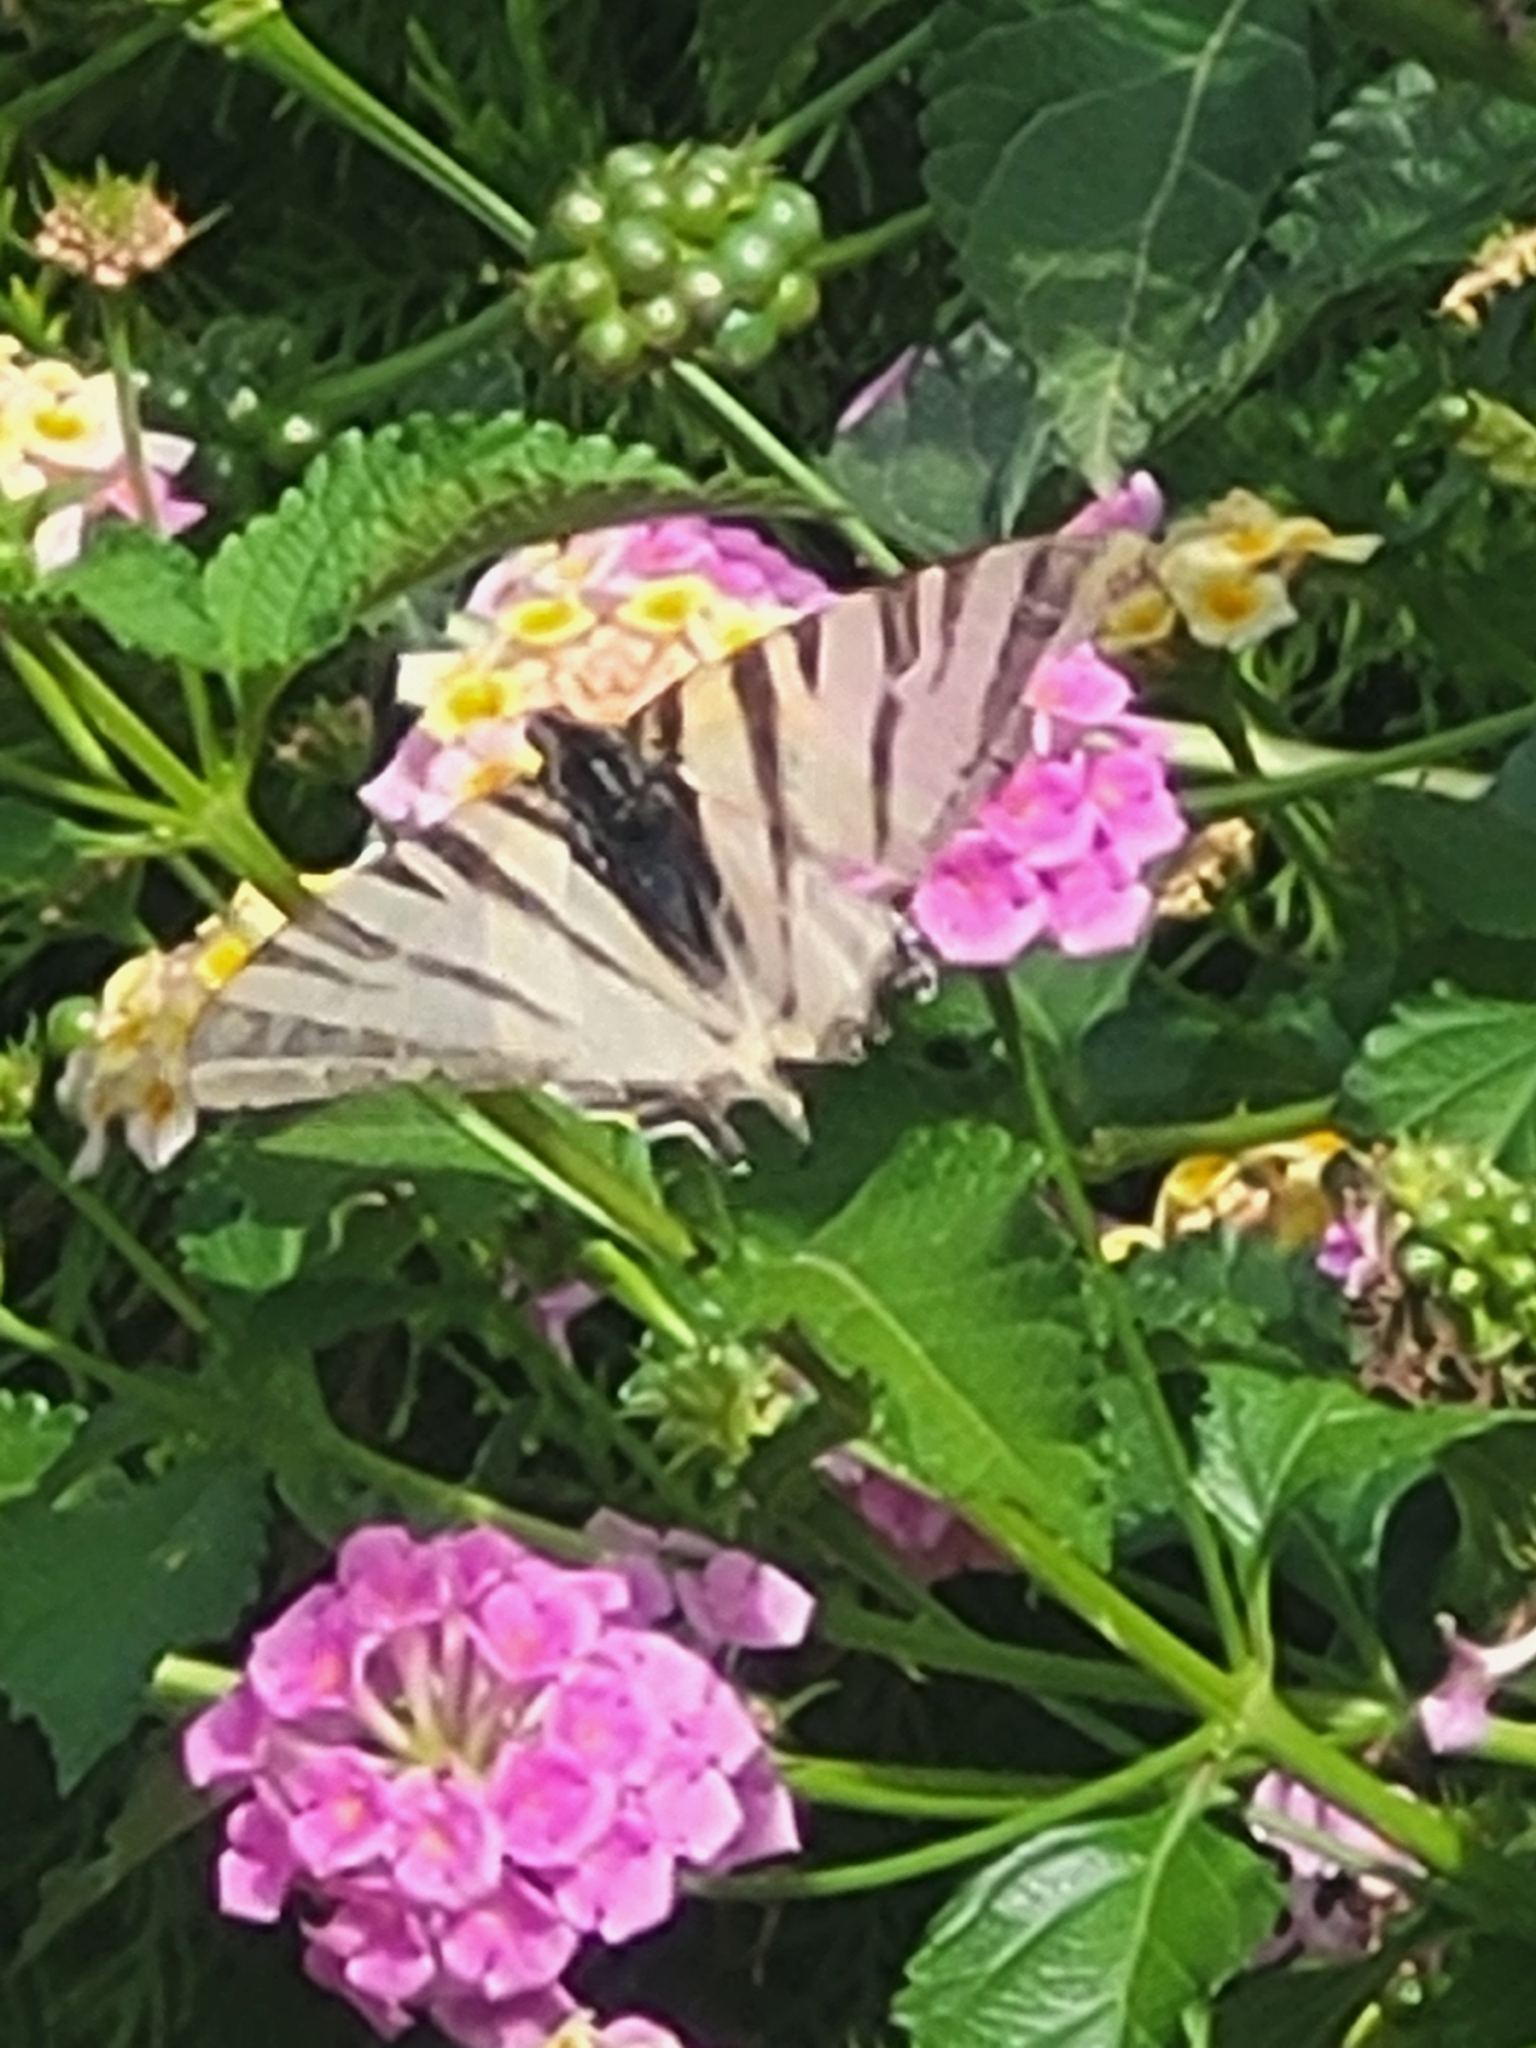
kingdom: Animalia
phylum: Arthropoda
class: Insecta
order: Lepidoptera
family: Papilionidae
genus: Iphiclides
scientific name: Iphiclides podalirius
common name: Scarce swallowtail
